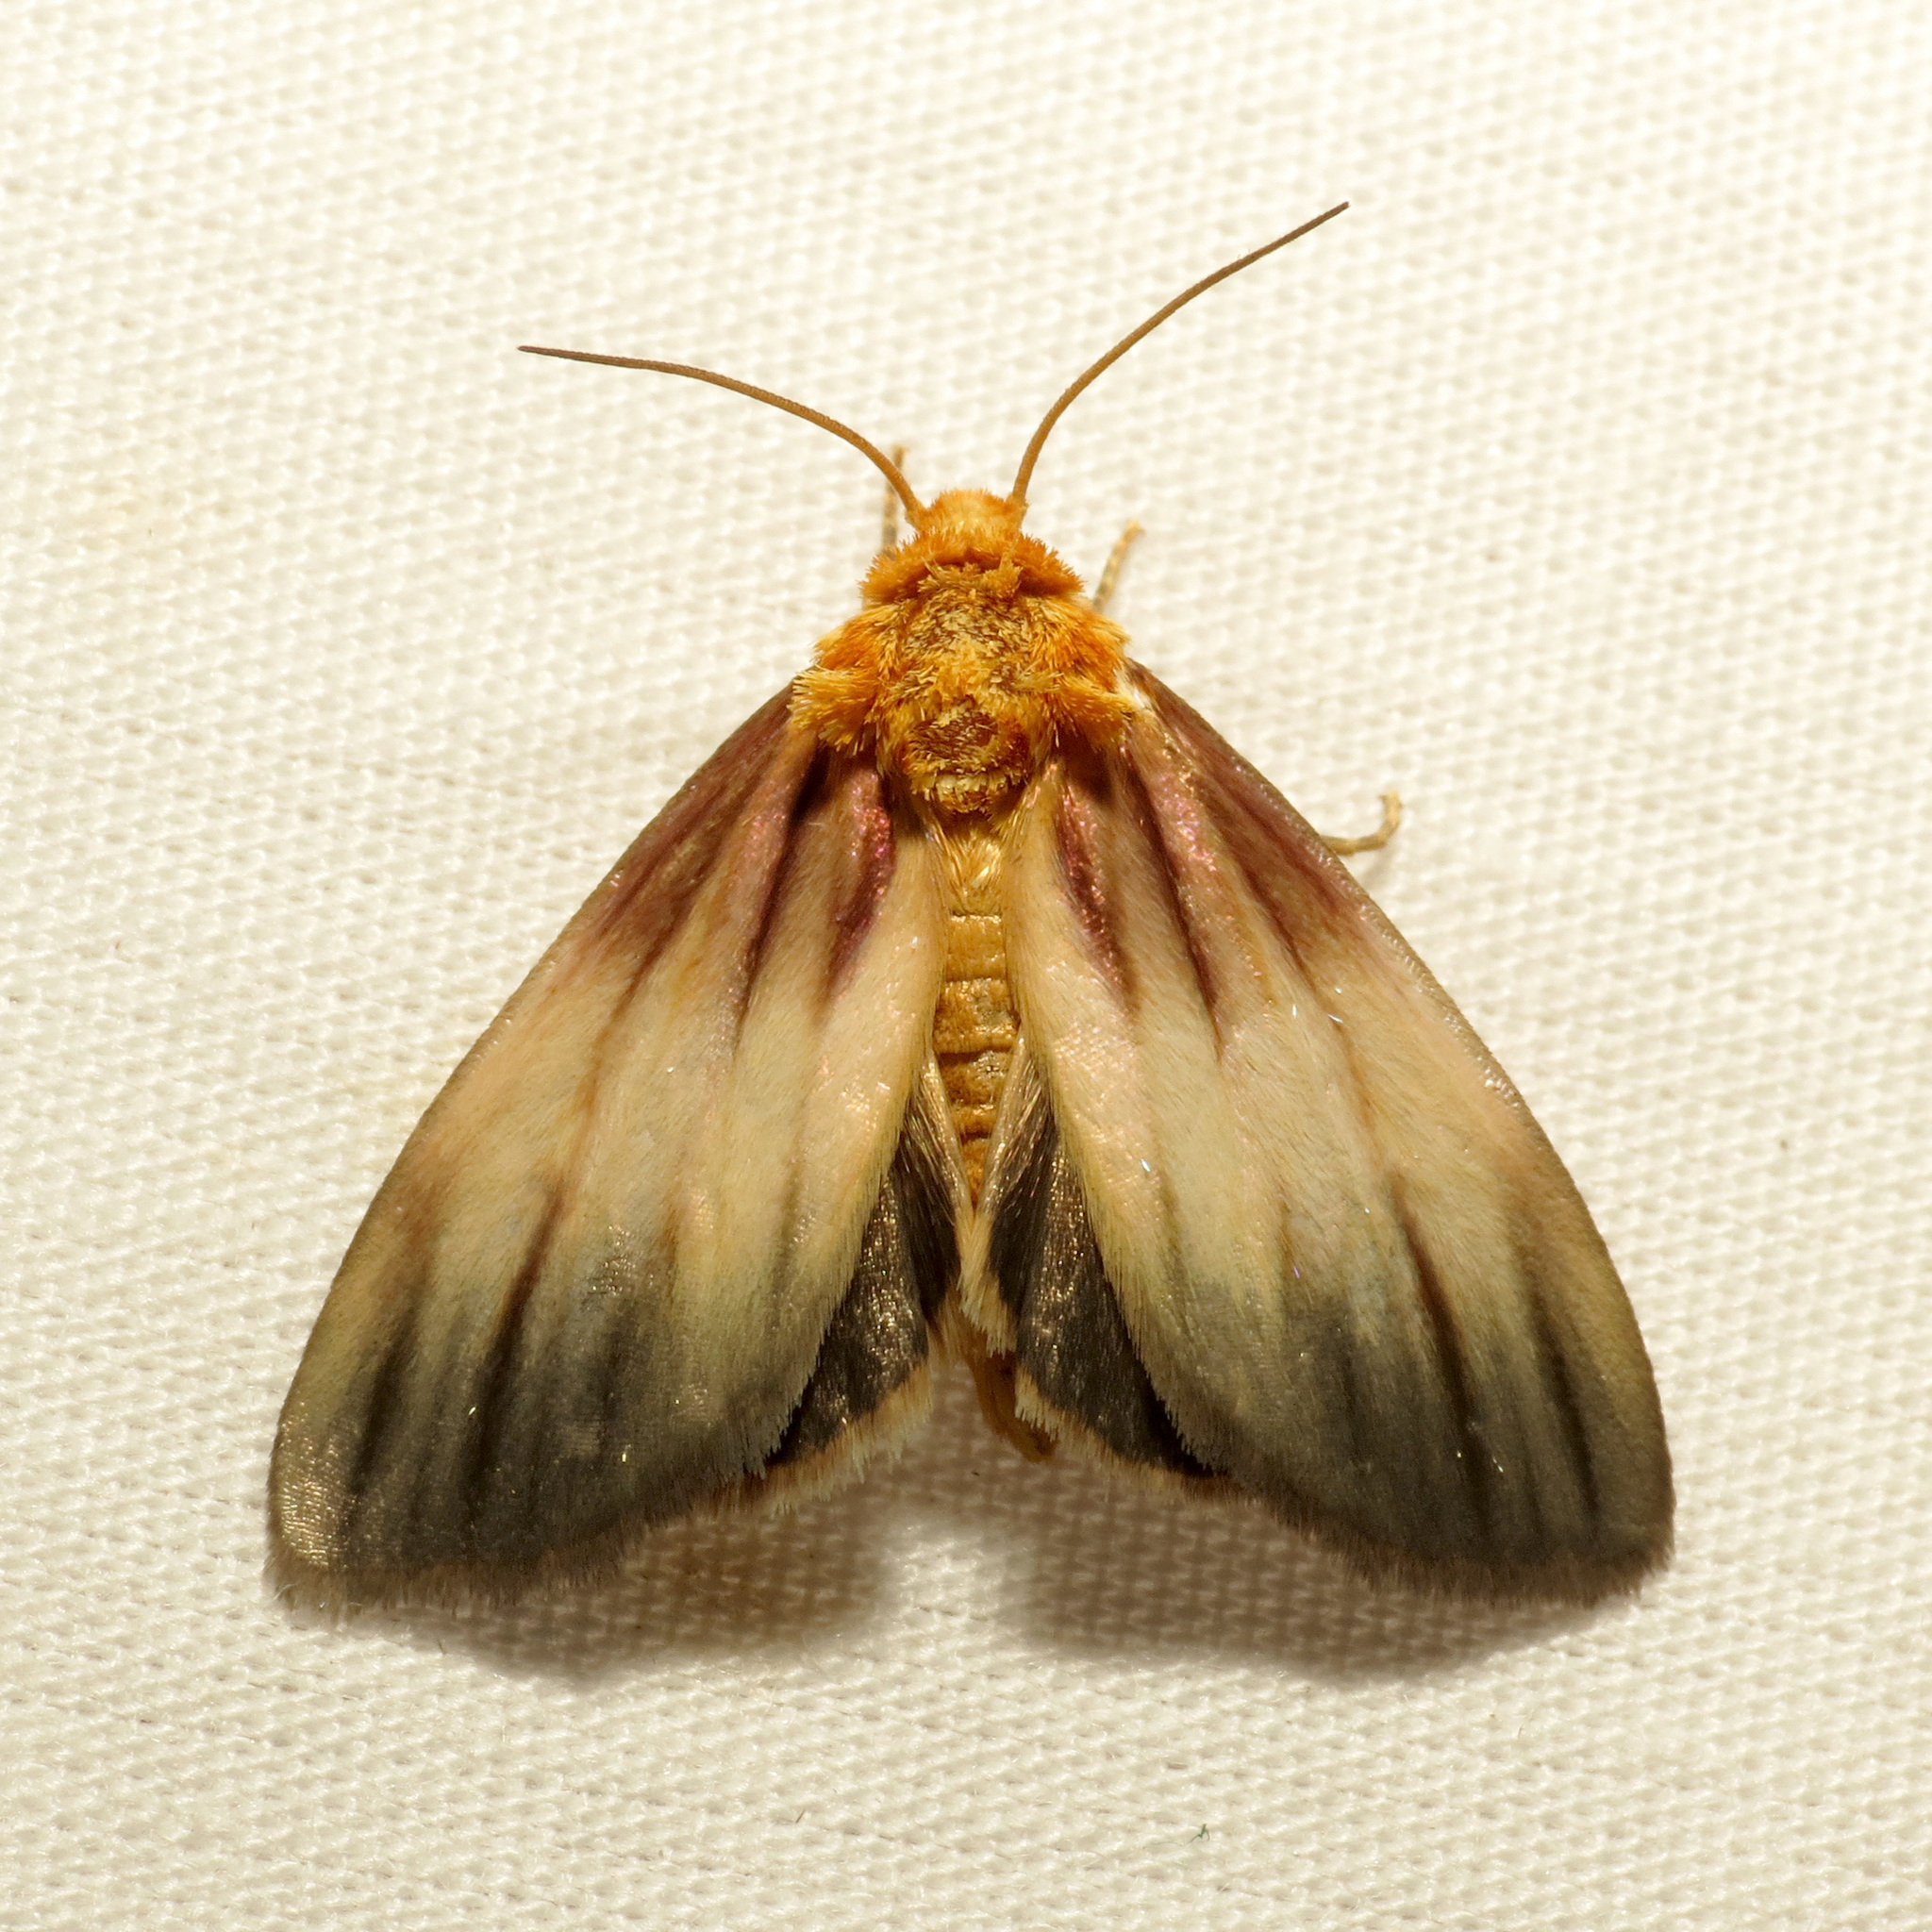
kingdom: Animalia
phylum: Arthropoda
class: Insecta
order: Lepidoptera
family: Noctuidae
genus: Antaplaga
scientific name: Antaplaga plesioglauca
